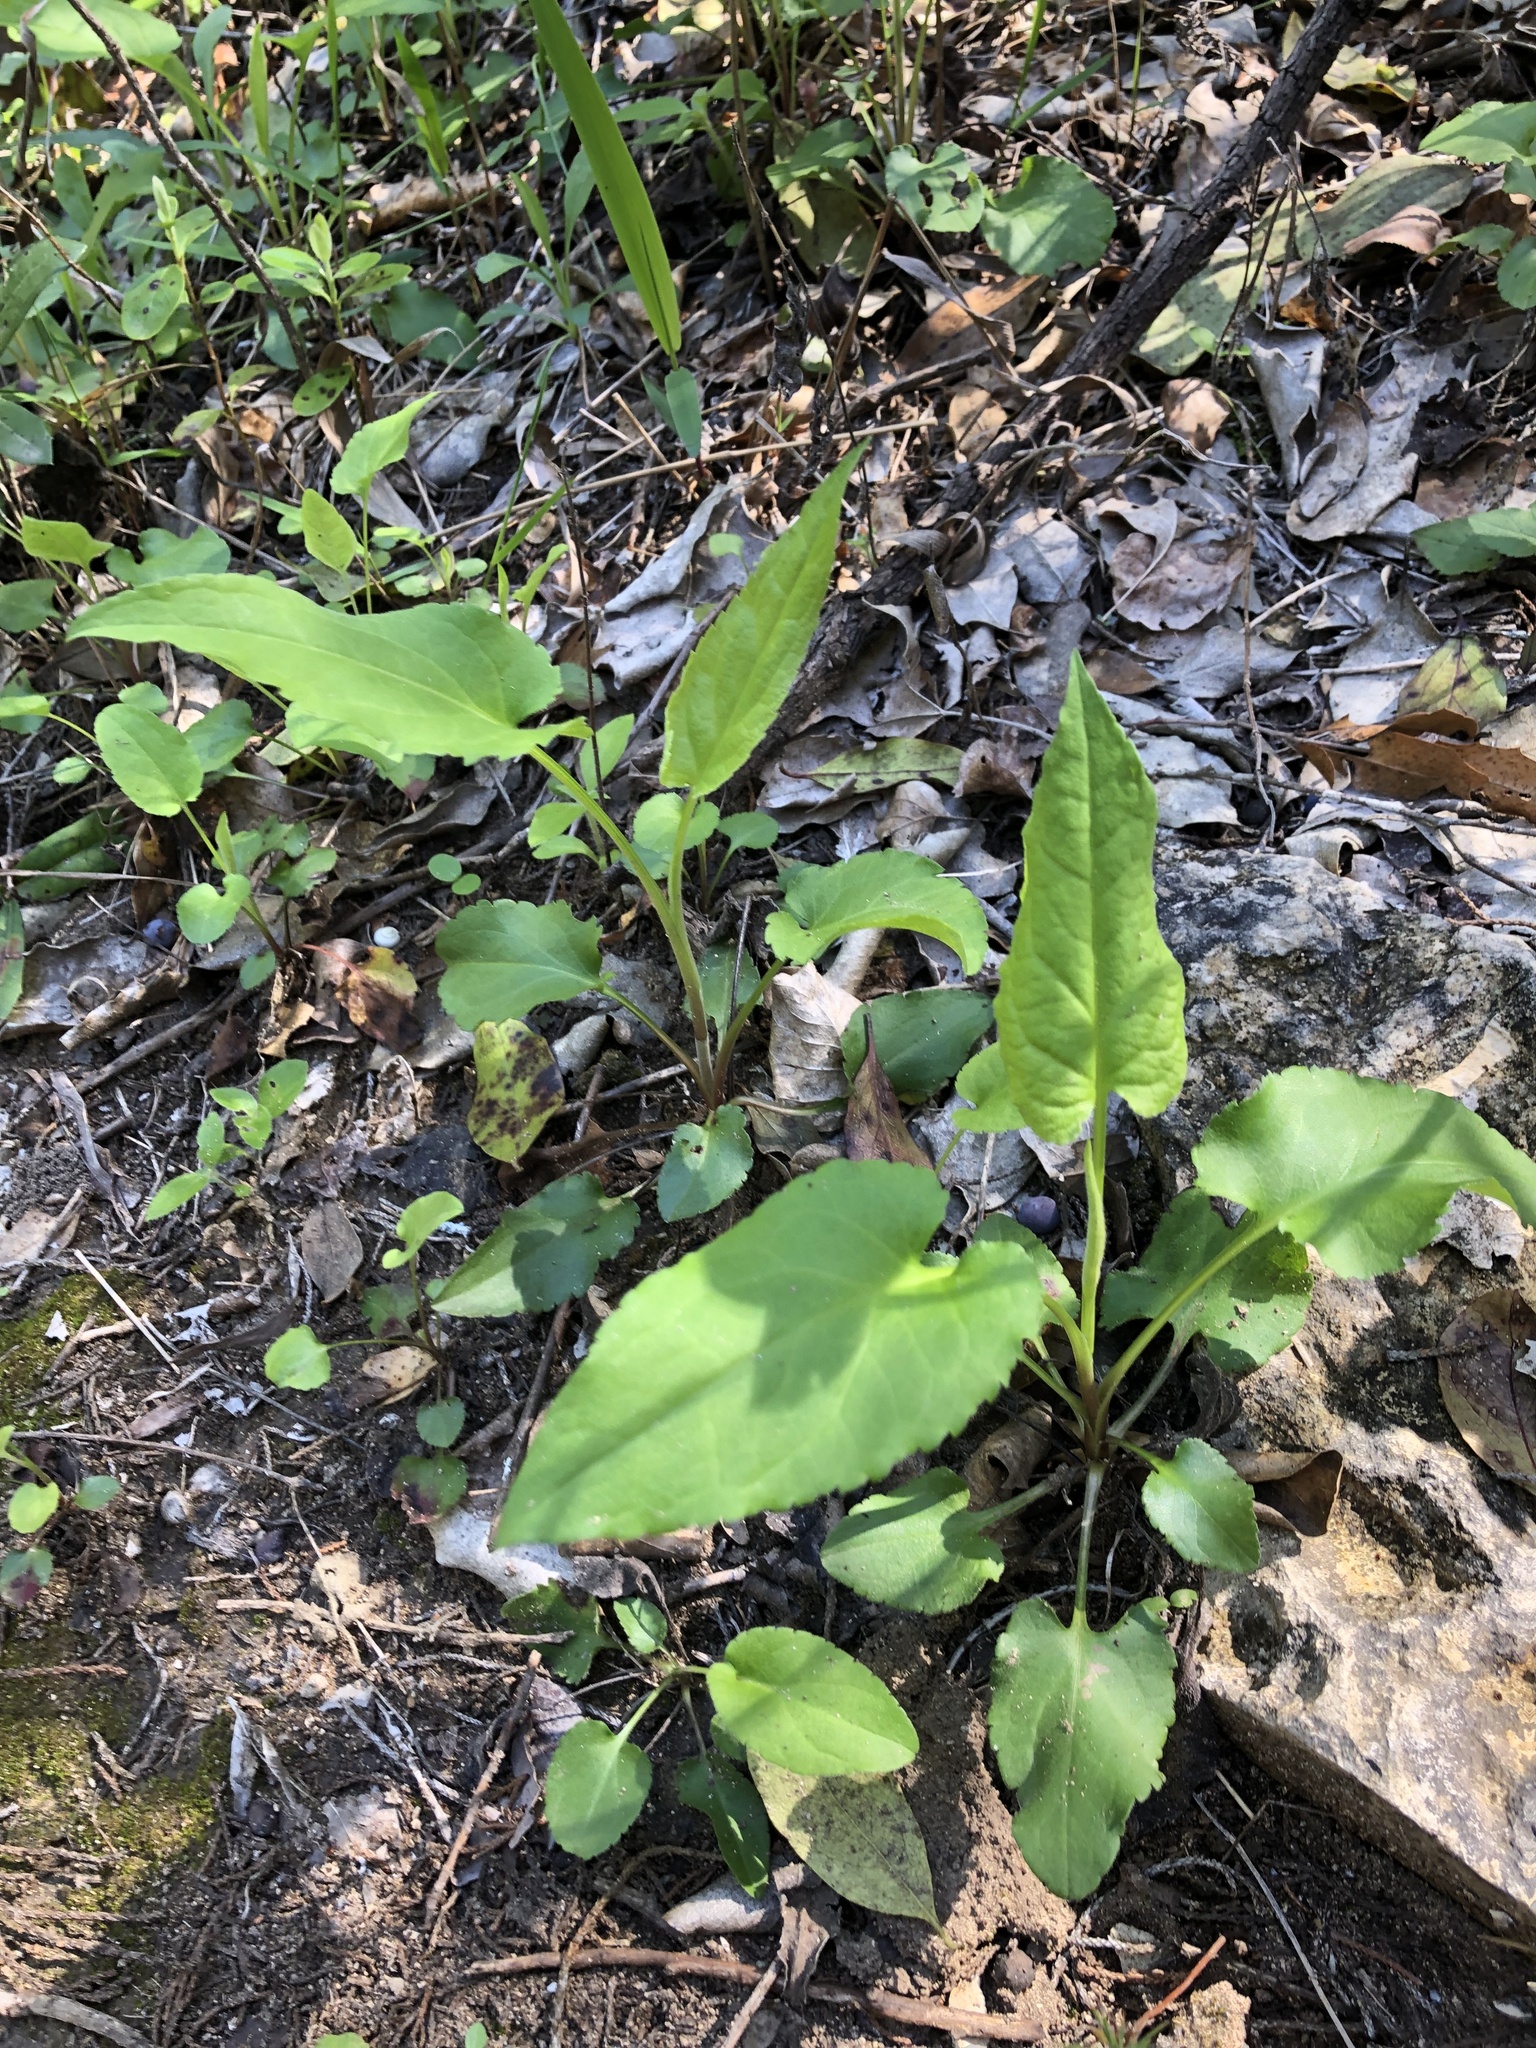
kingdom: Plantae
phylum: Tracheophyta
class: Magnoliopsida
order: Asterales
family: Asteraceae
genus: Symphyotrichum
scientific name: Symphyotrichum drummondii
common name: Drummond's aster
